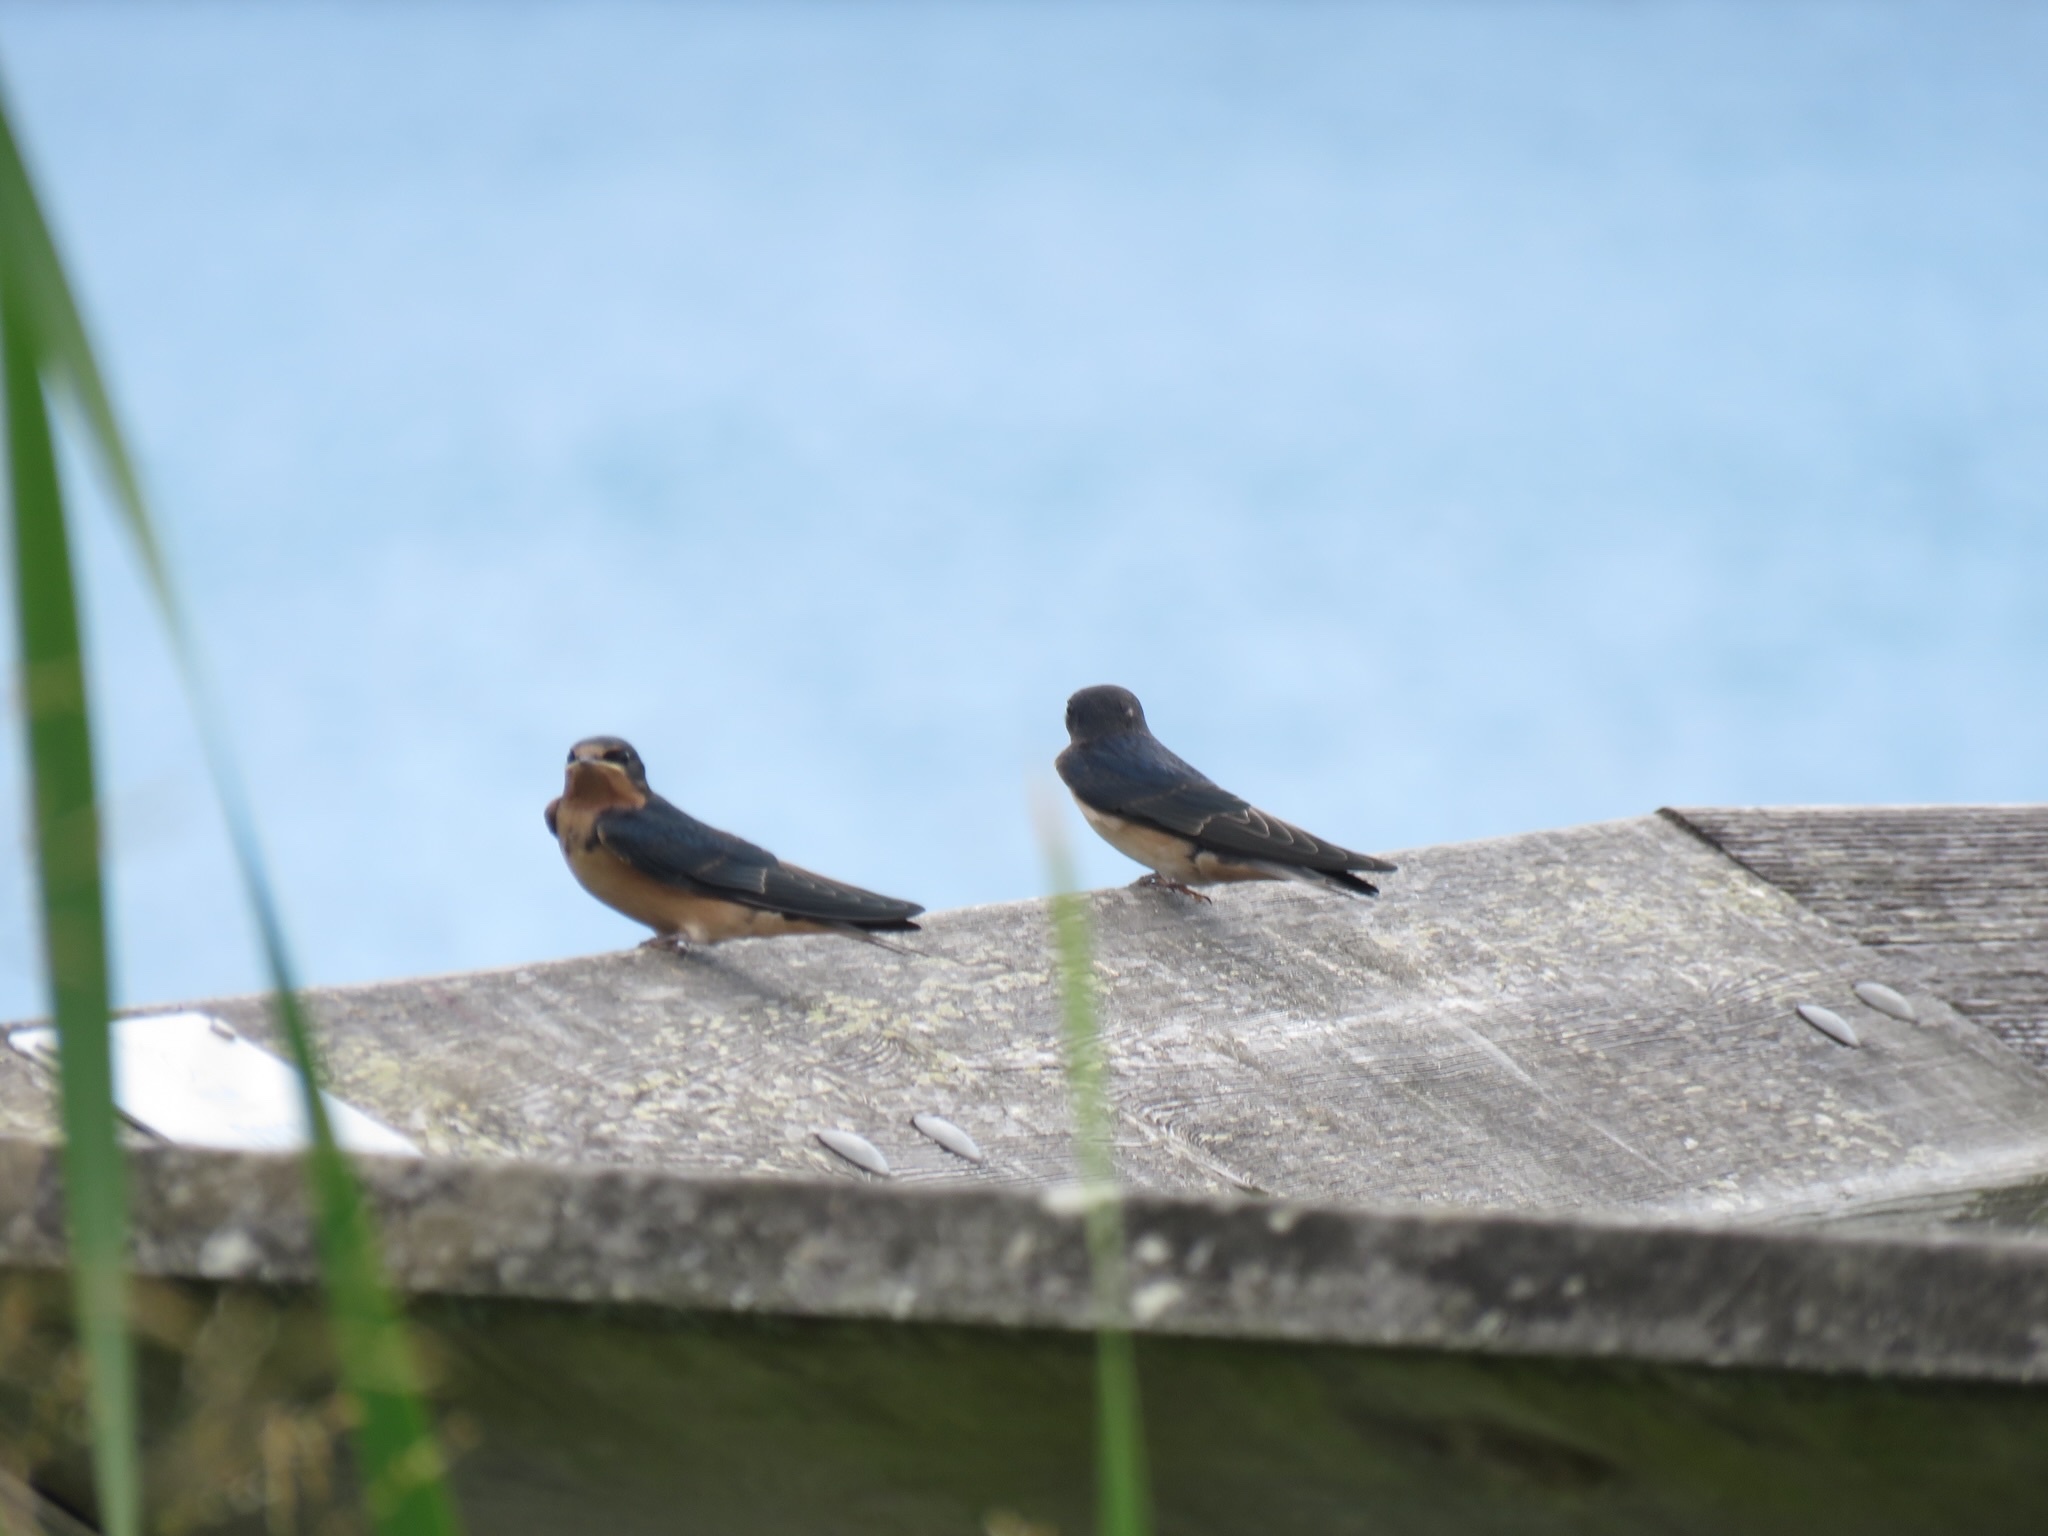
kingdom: Animalia
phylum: Chordata
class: Aves
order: Passeriformes
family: Hirundinidae
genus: Hirundo
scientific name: Hirundo rustica
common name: Barn swallow
